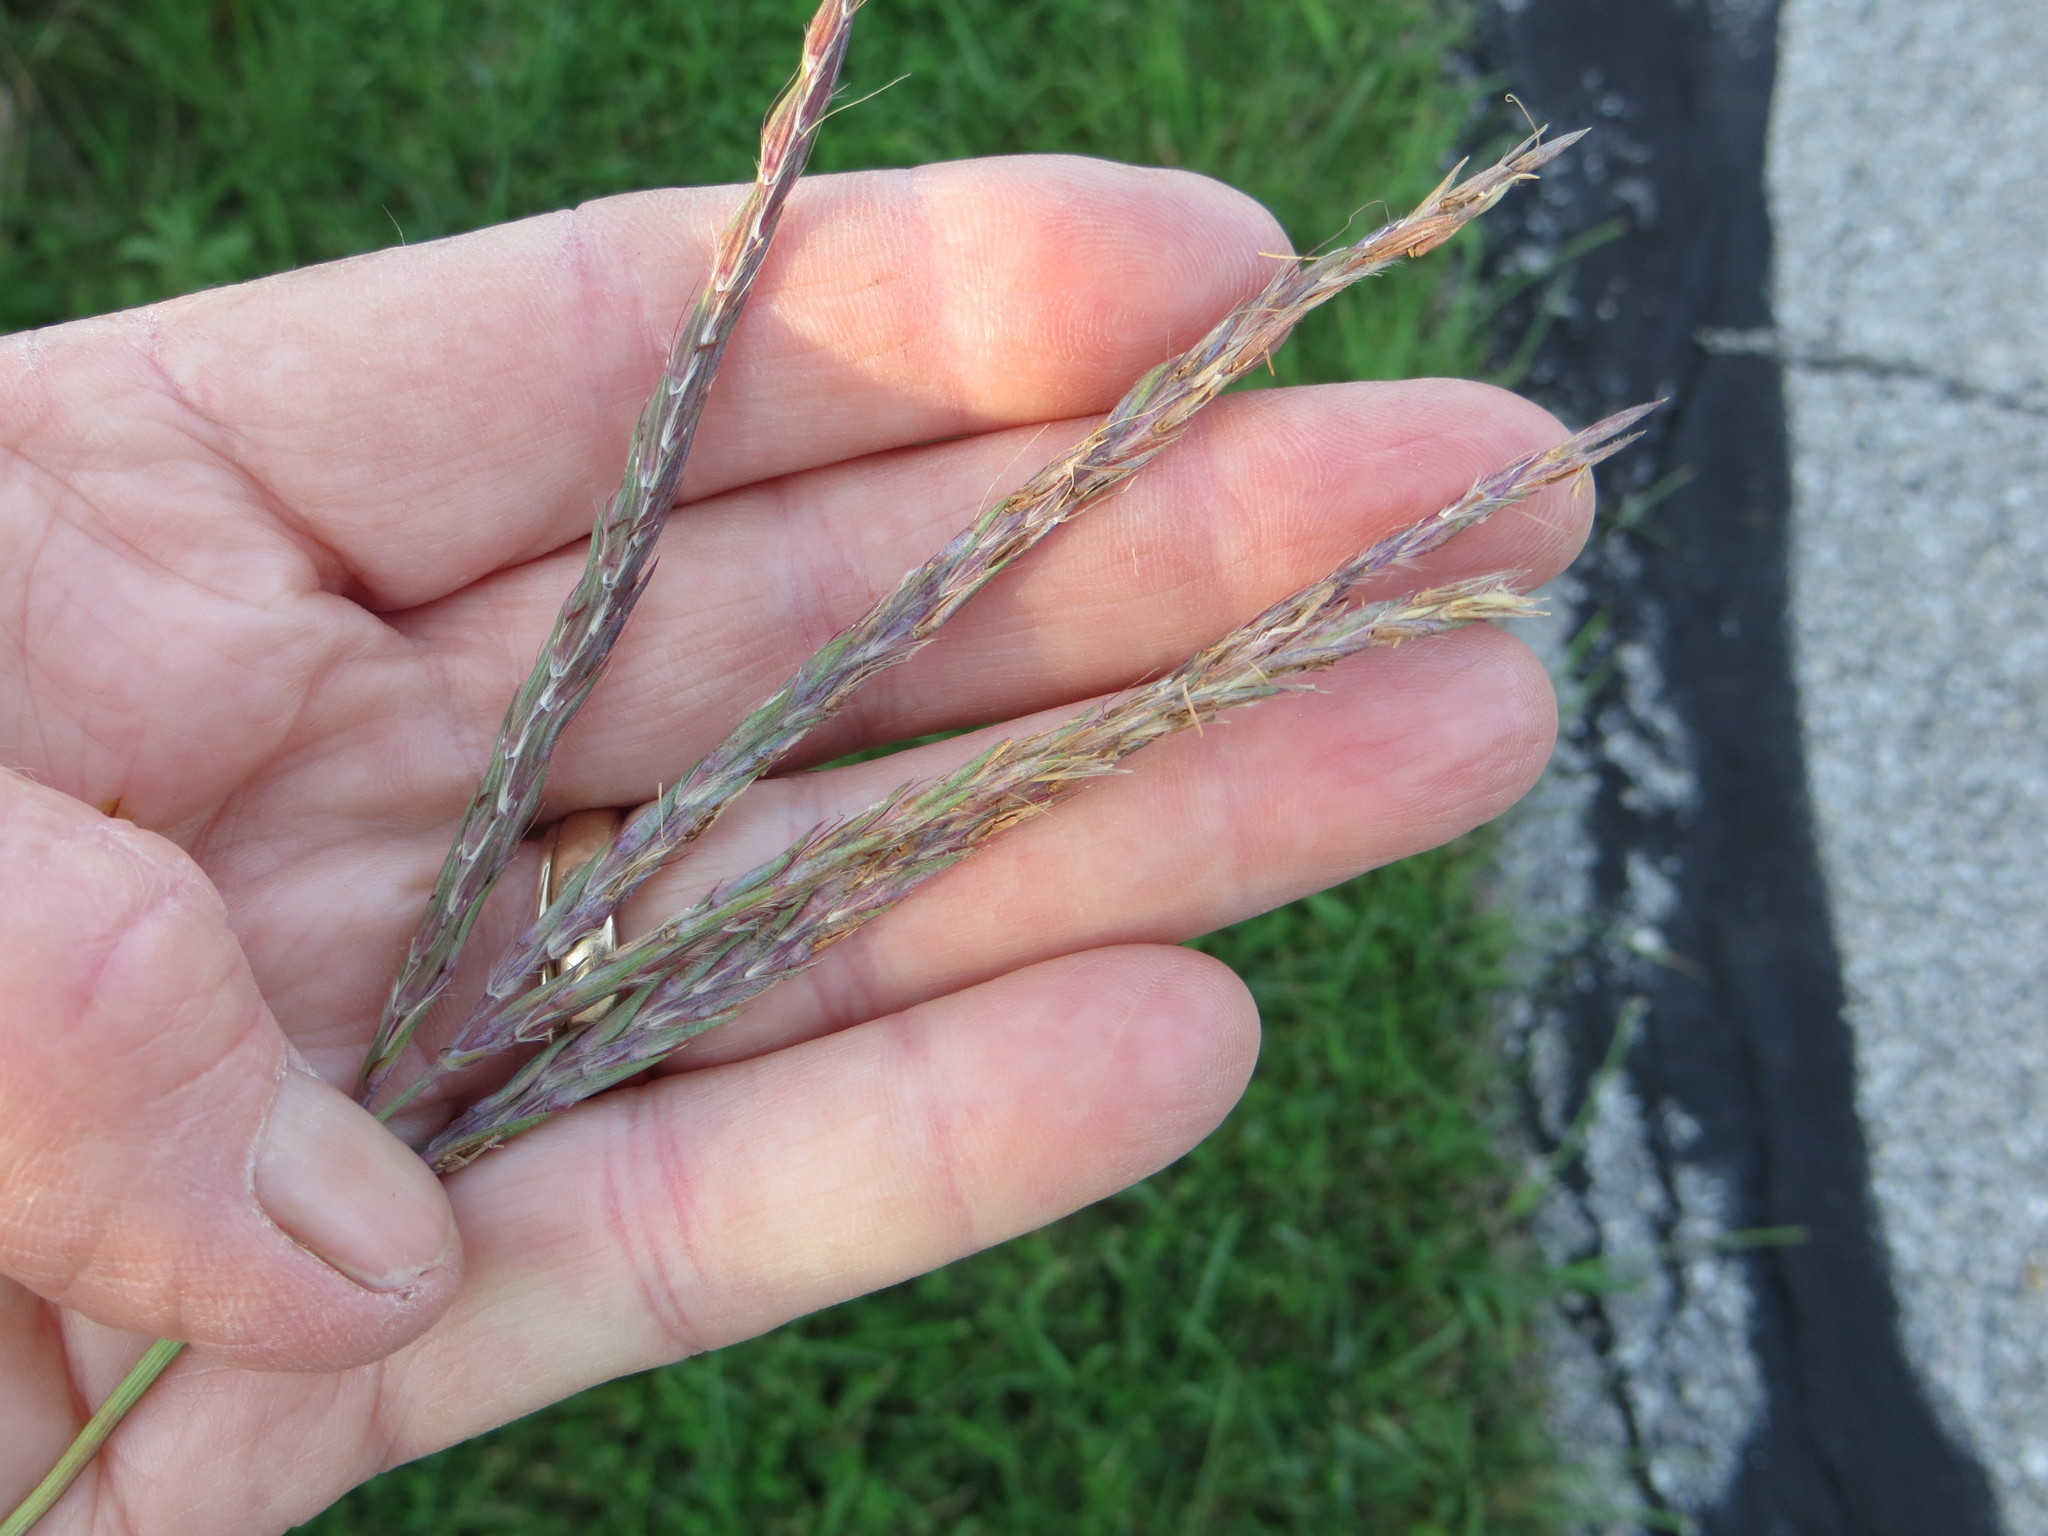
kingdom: Plantae
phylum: Tracheophyta
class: Liliopsida
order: Poales
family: Poaceae
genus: Andropogon
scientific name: Andropogon gerardi
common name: Big bluestem
